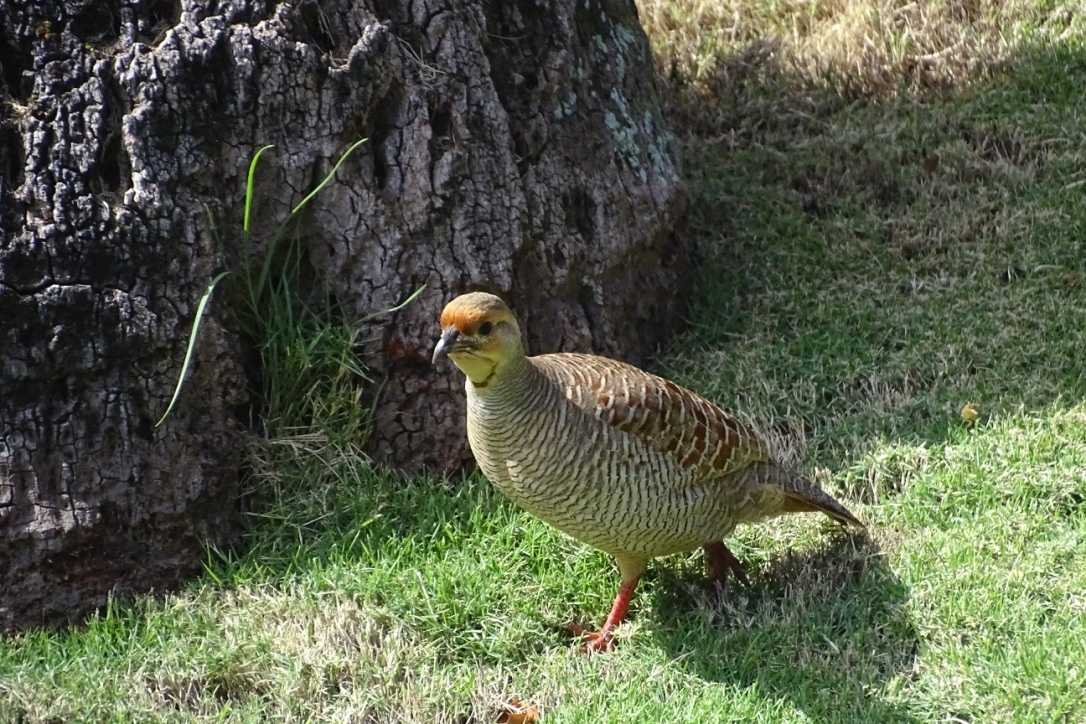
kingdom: Animalia
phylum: Chordata
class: Aves
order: Galliformes
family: Phasianidae
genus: Ortygornis
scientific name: Ortygornis pondicerianus
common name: Grey francolin
